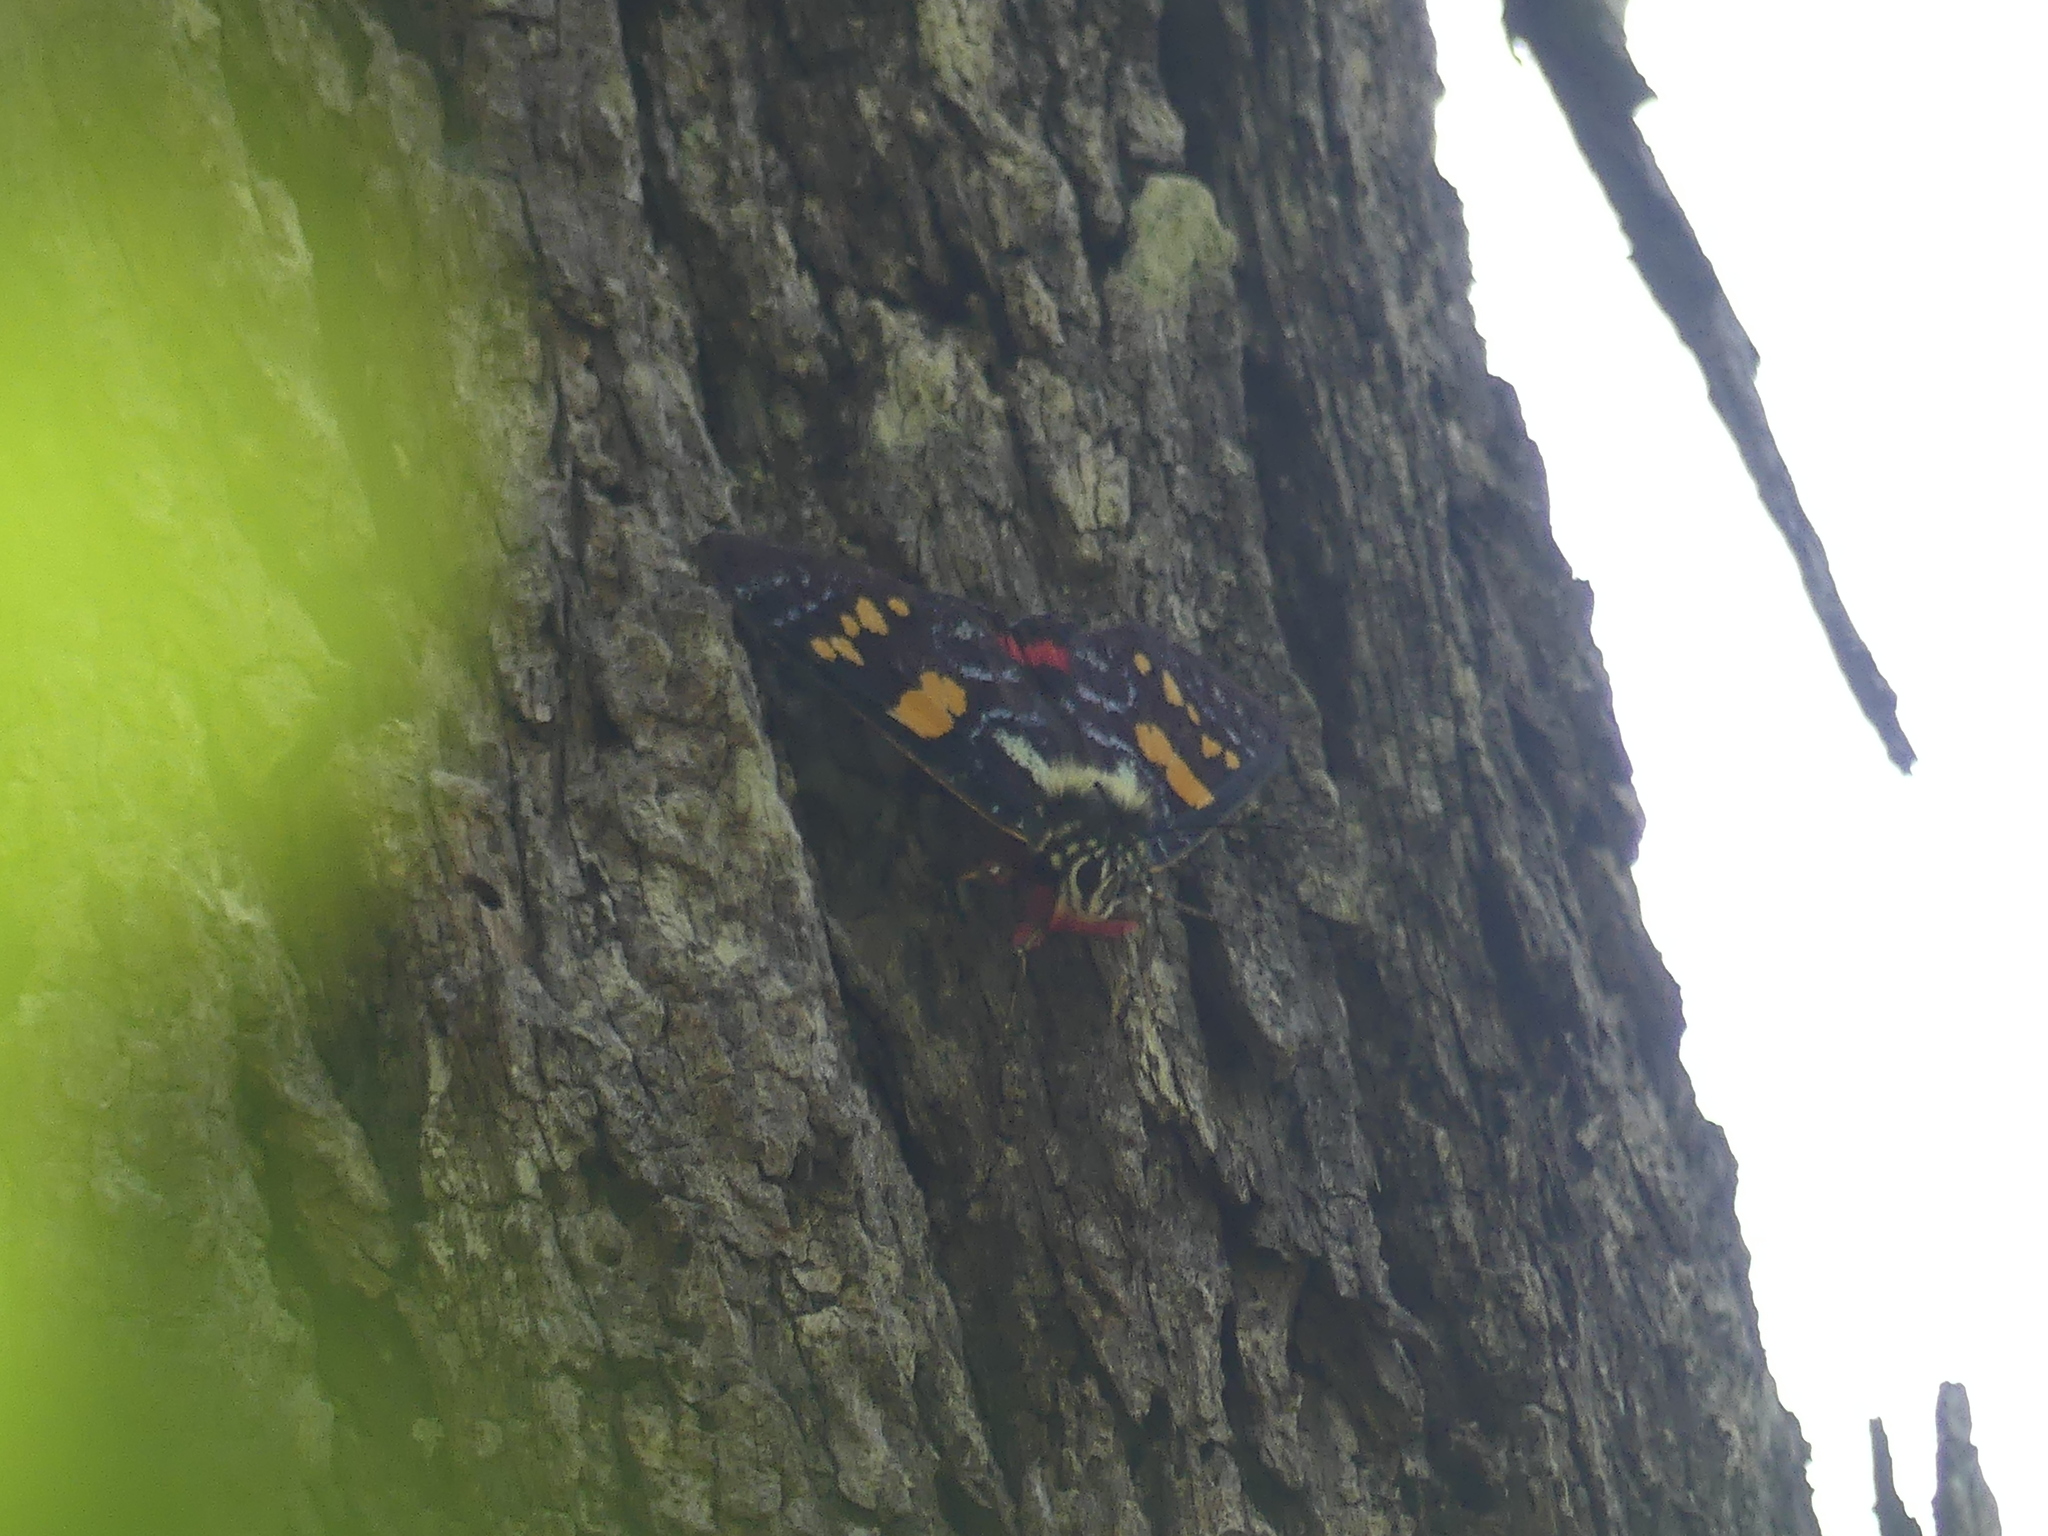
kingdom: Animalia
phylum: Arthropoda
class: Insecta
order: Lepidoptera
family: Noctuidae
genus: Agarista
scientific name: Agarista agricola
